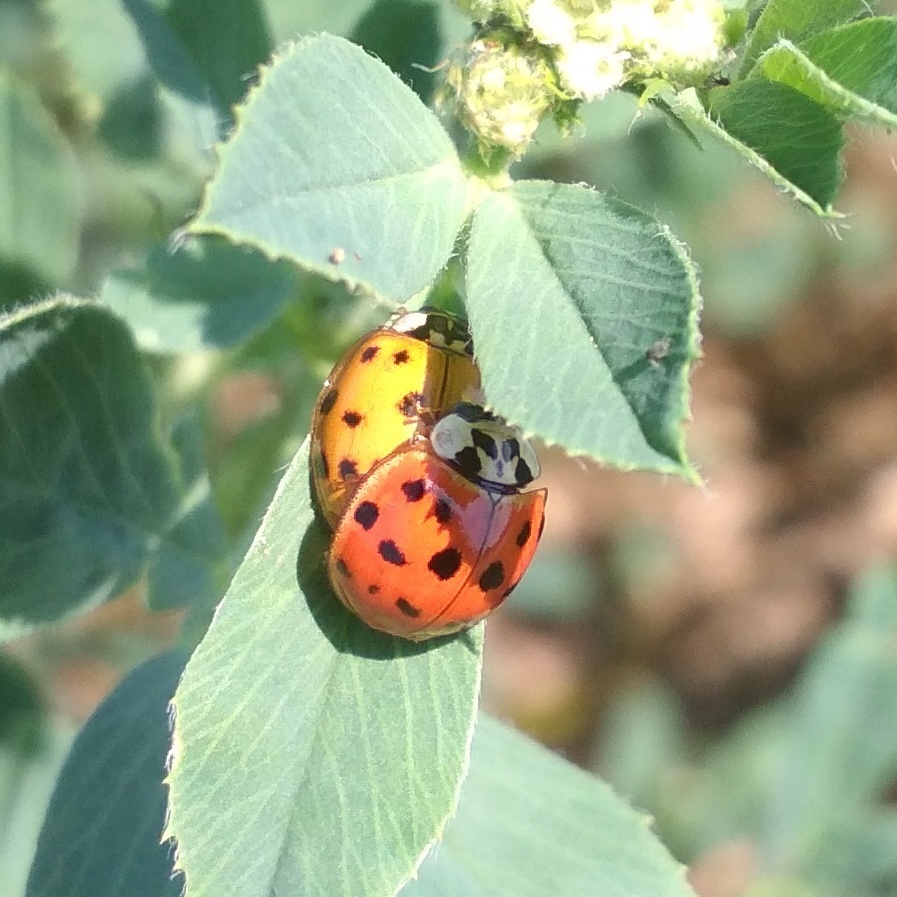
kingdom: Animalia
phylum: Arthropoda
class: Insecta
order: Coleoptera
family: Coccinellidae
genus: Harmonia
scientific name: Harmonia axyridis
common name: Harlequin ladybird
